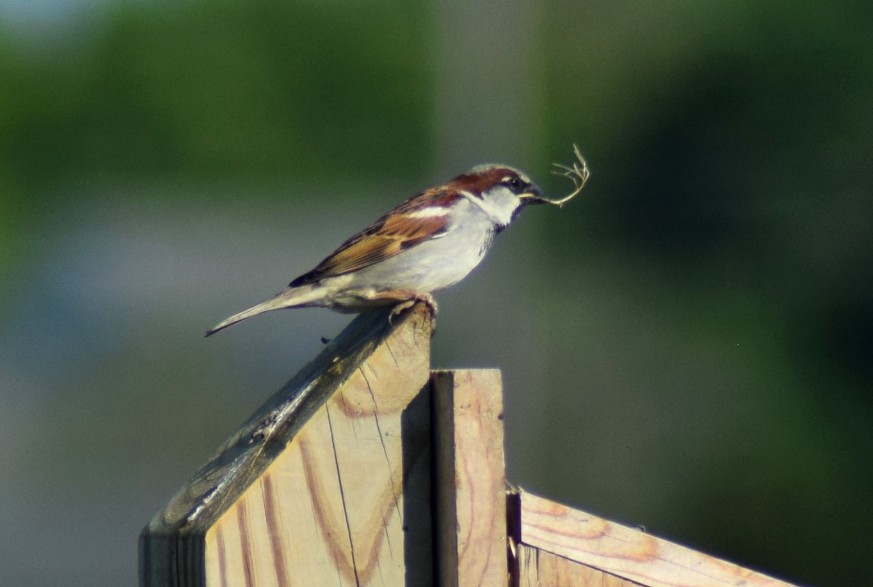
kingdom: Animalia
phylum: Chordata
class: Aves
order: Passeriformes
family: Passeridae
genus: Passer
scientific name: Passer domesticus
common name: House sparrow
